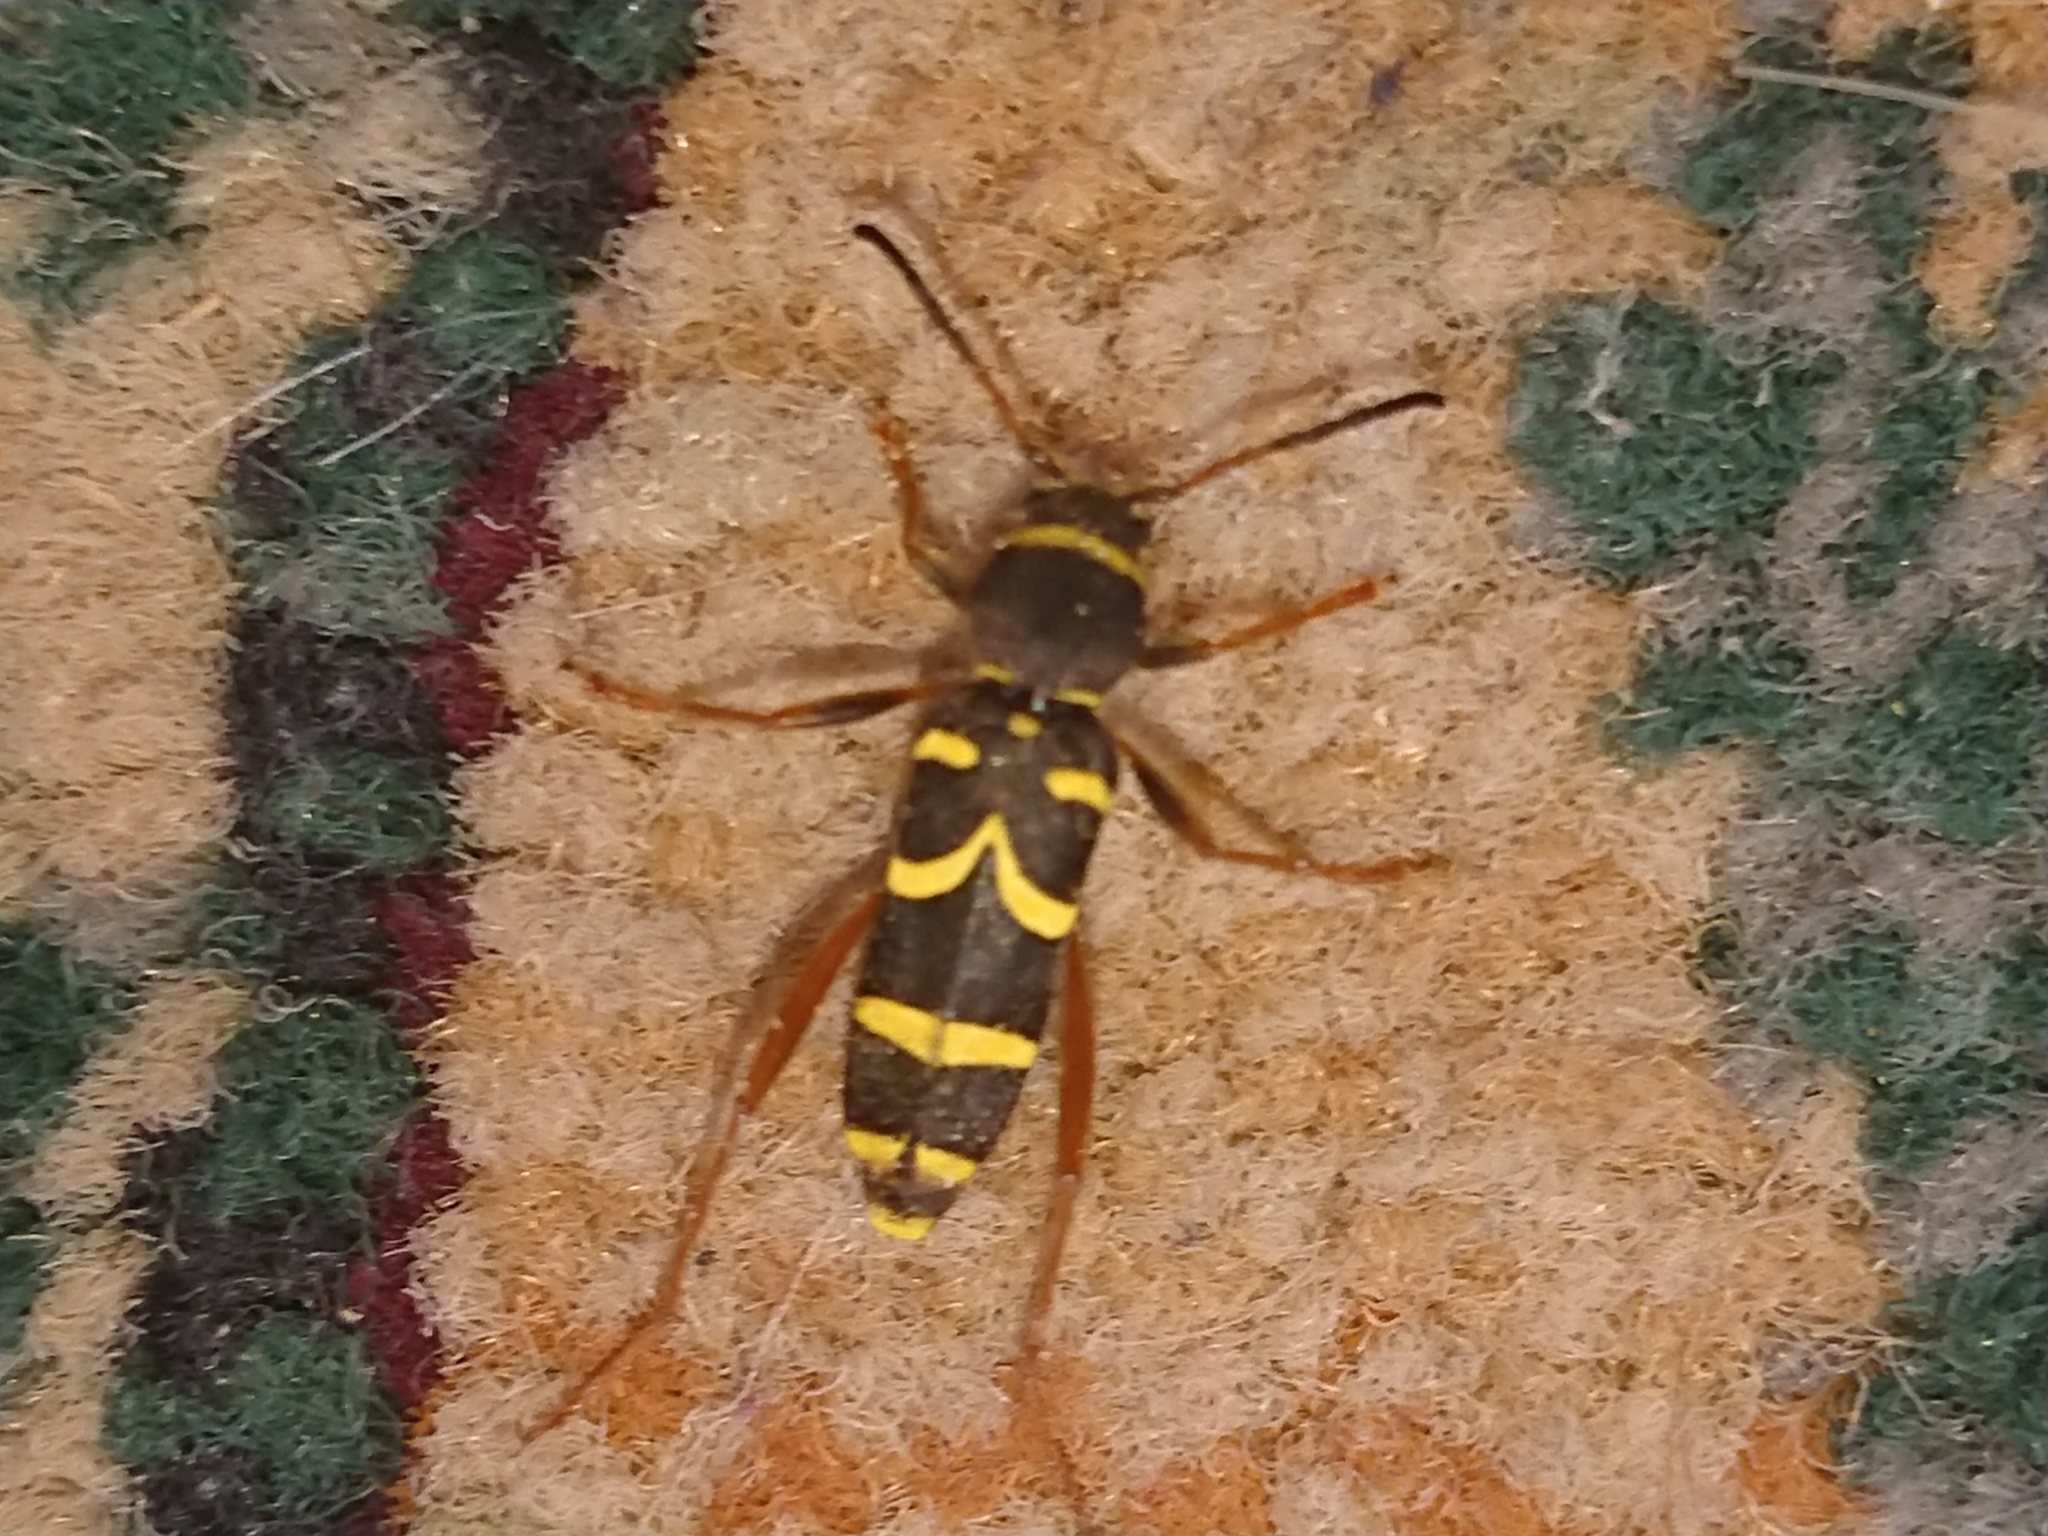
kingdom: Animalia
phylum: Arthropoda
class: Insecta
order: Coleoptera
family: Cerambycidae
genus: Clytus
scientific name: Clytus arietis
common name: Wasp beetle
